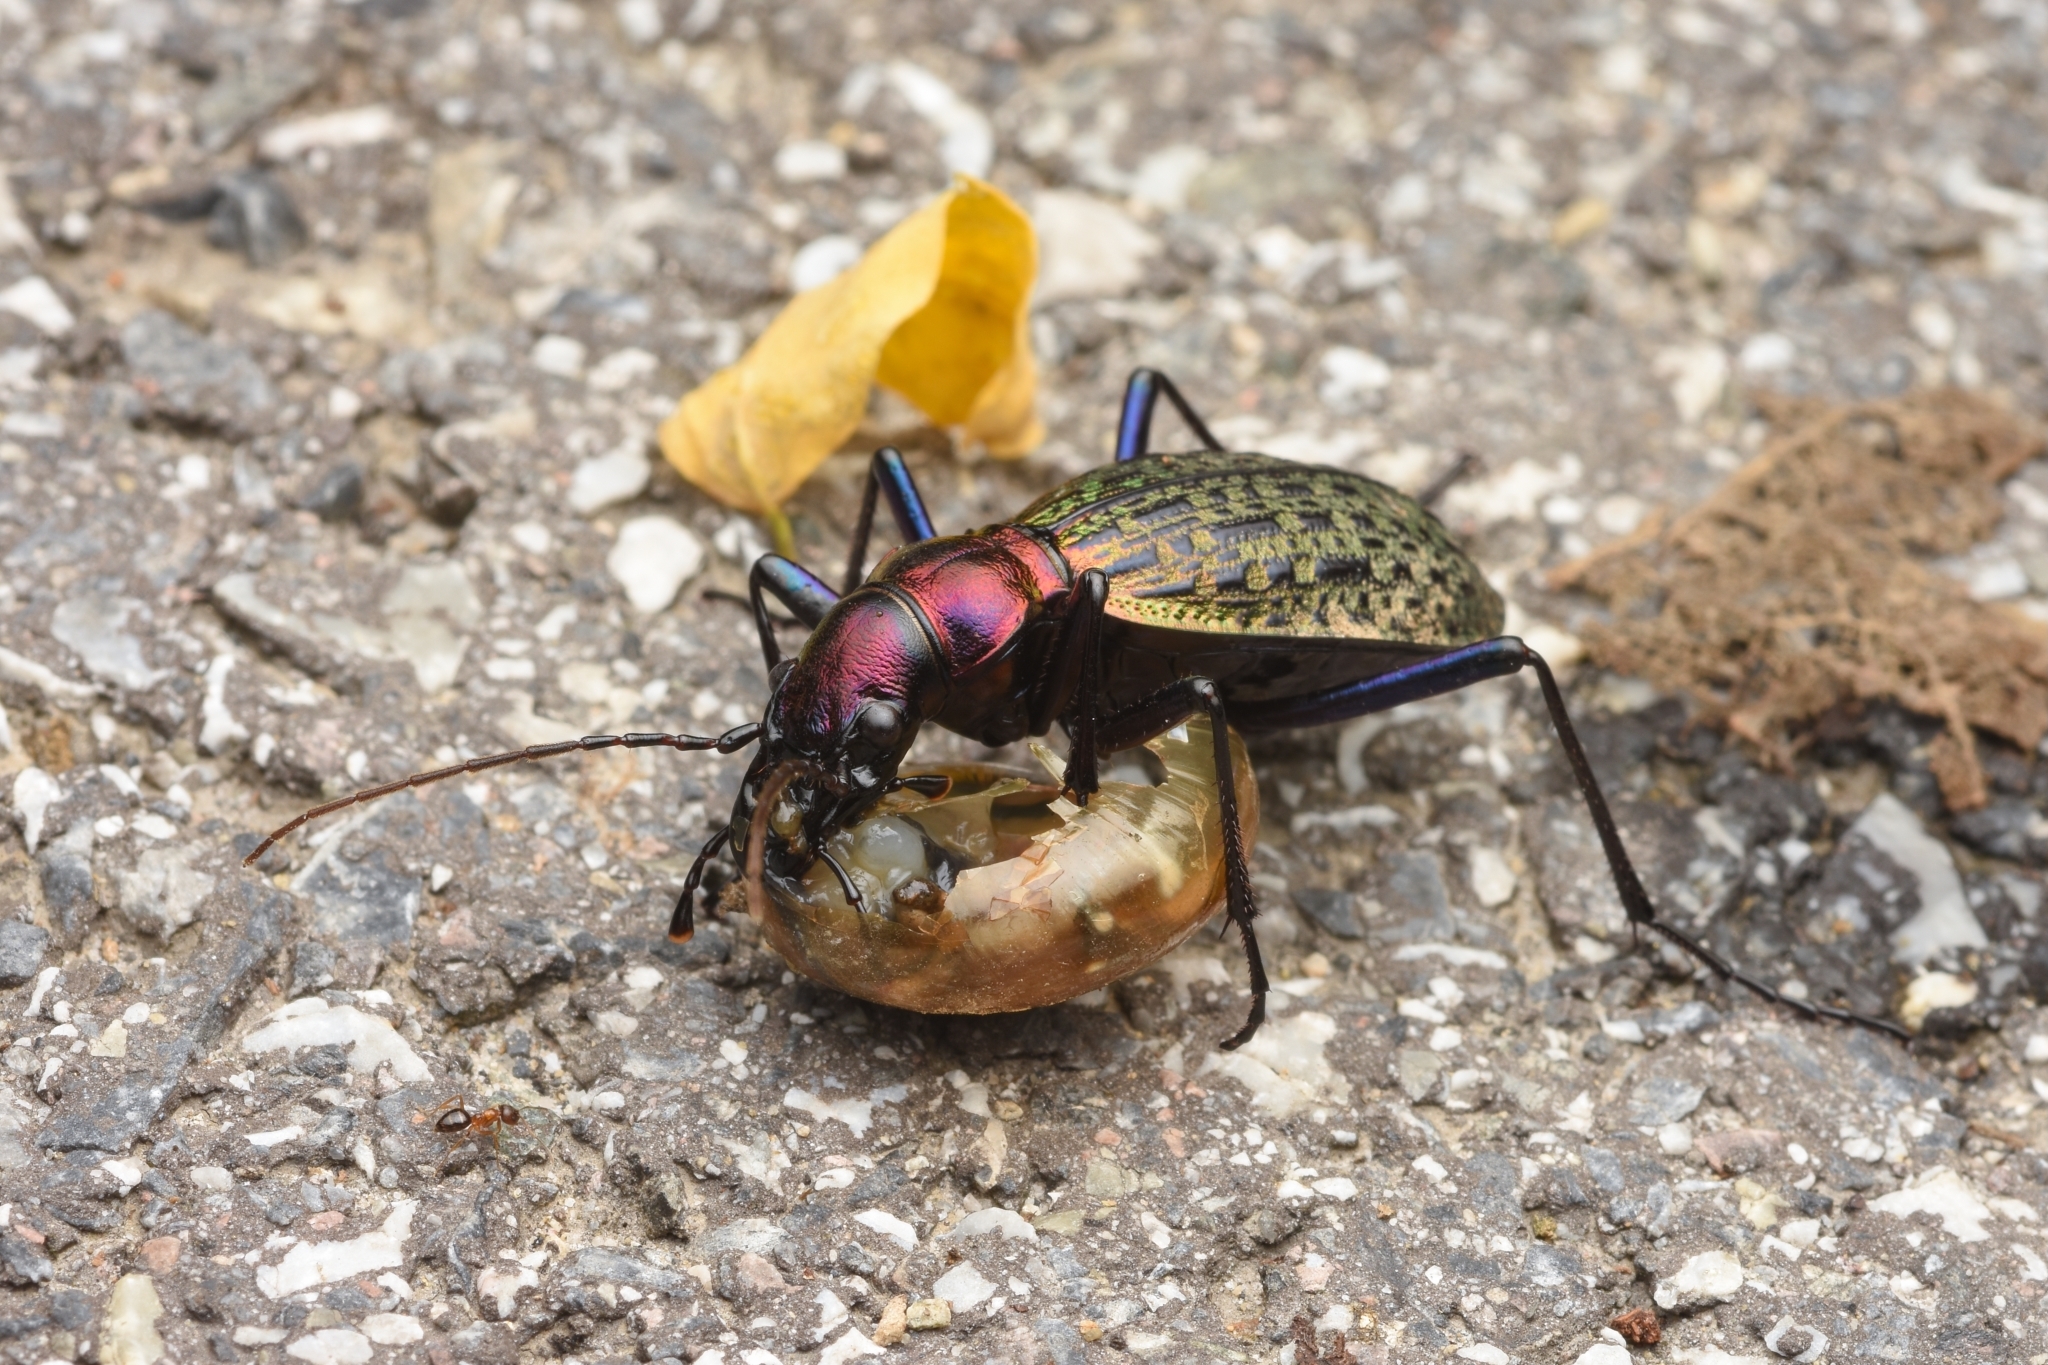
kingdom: Animalia
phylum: Arthropoda
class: Insecta
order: Coleoptera
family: Carabidae
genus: Carabus
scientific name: Carabus mirabilissimus
